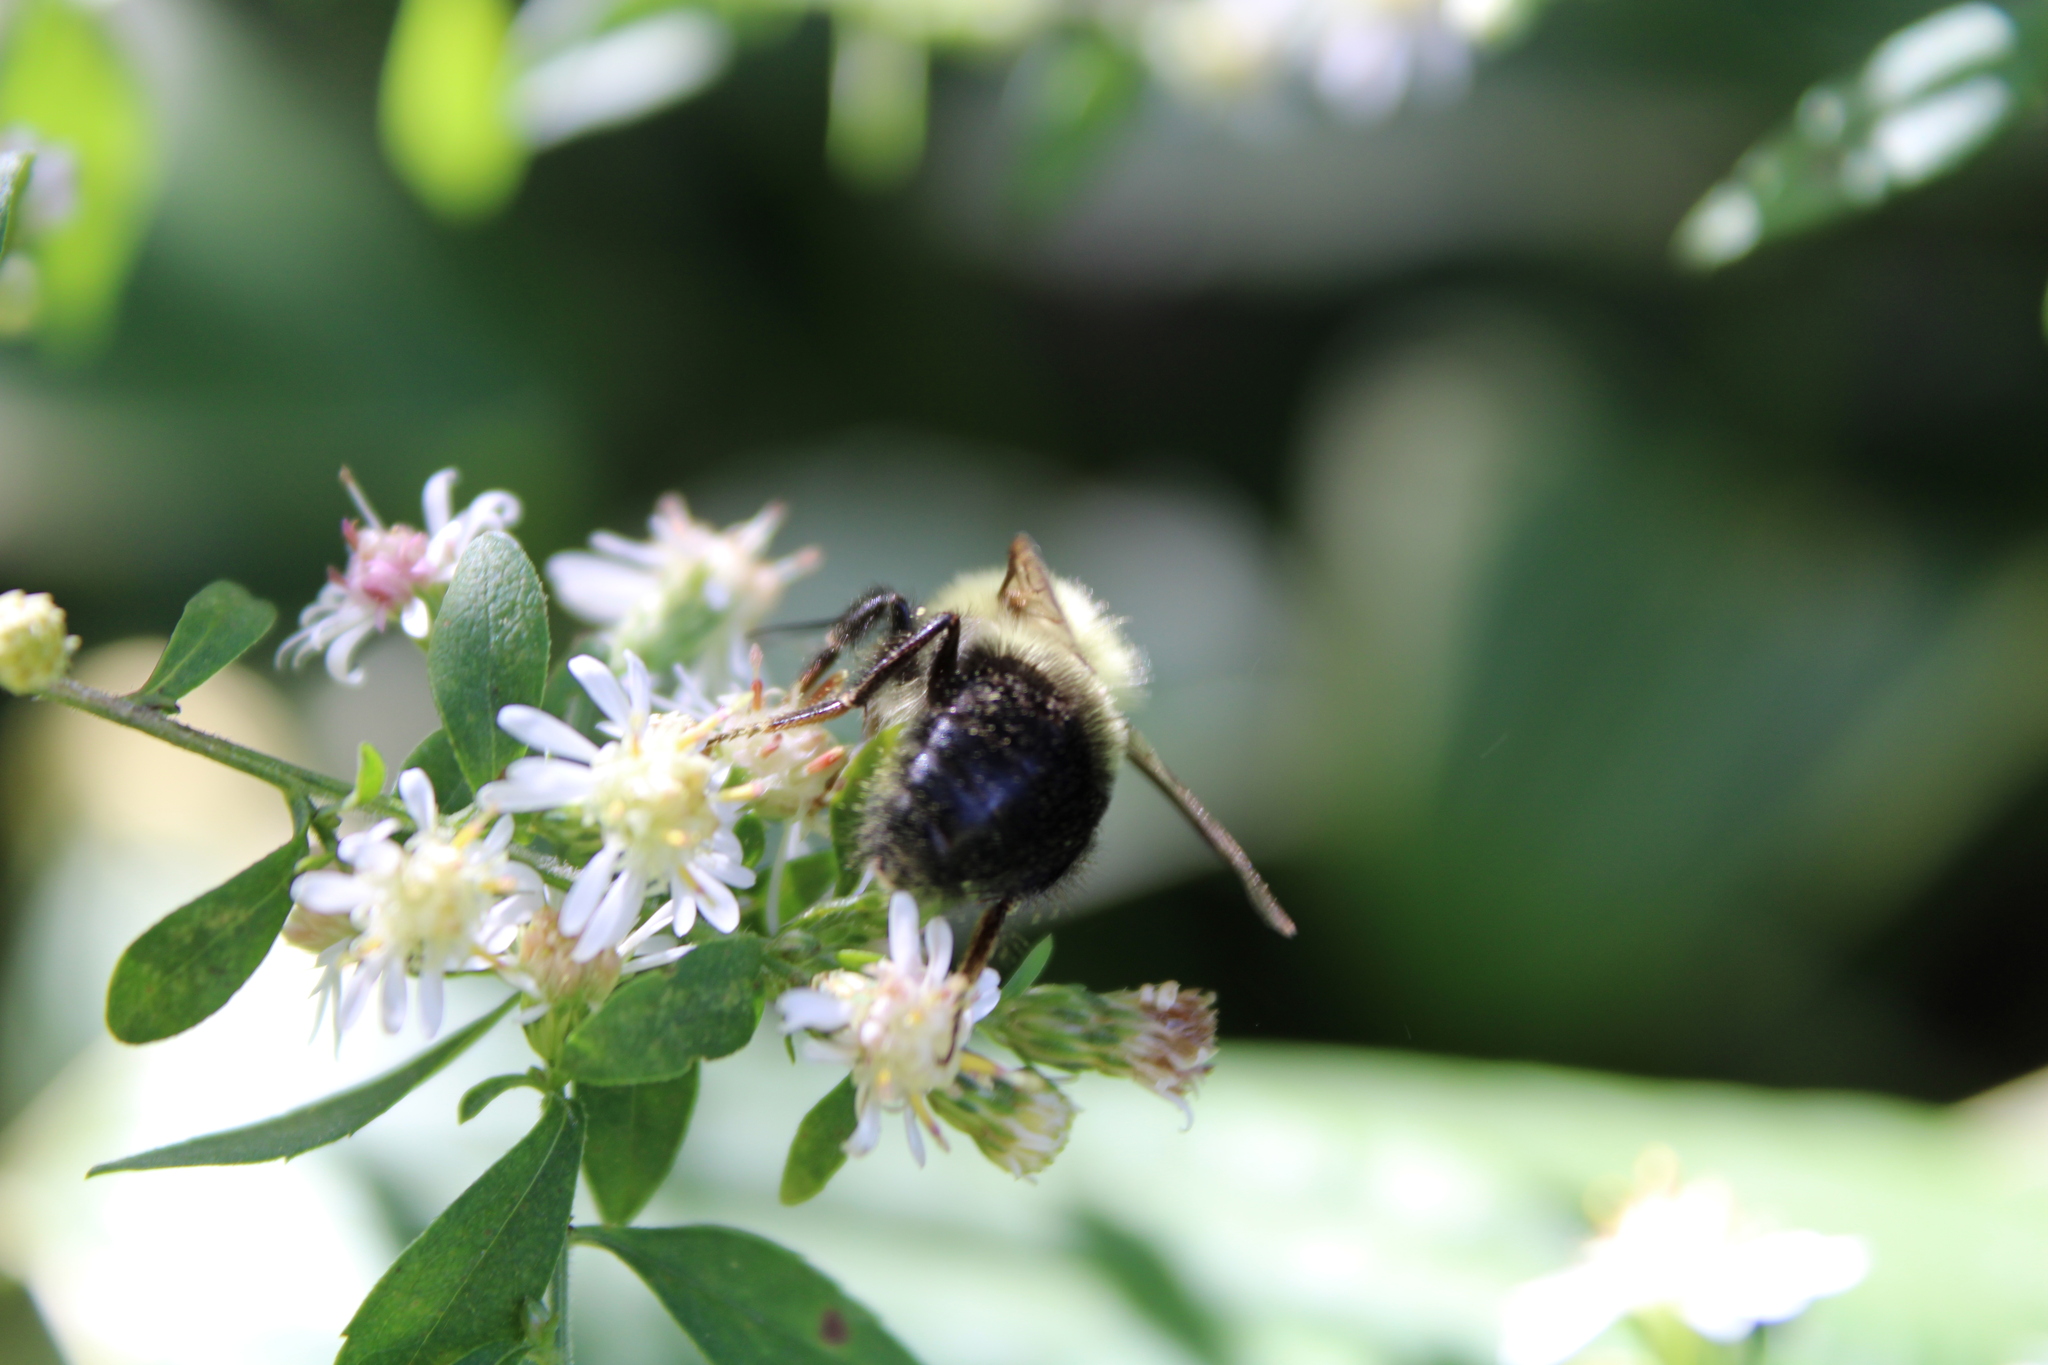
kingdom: Animalia
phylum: Arthropoda
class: Insecta
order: Hymenoptera
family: Apidae
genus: Bombus
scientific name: Bombus impatiens
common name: Common eastern bumble bee
